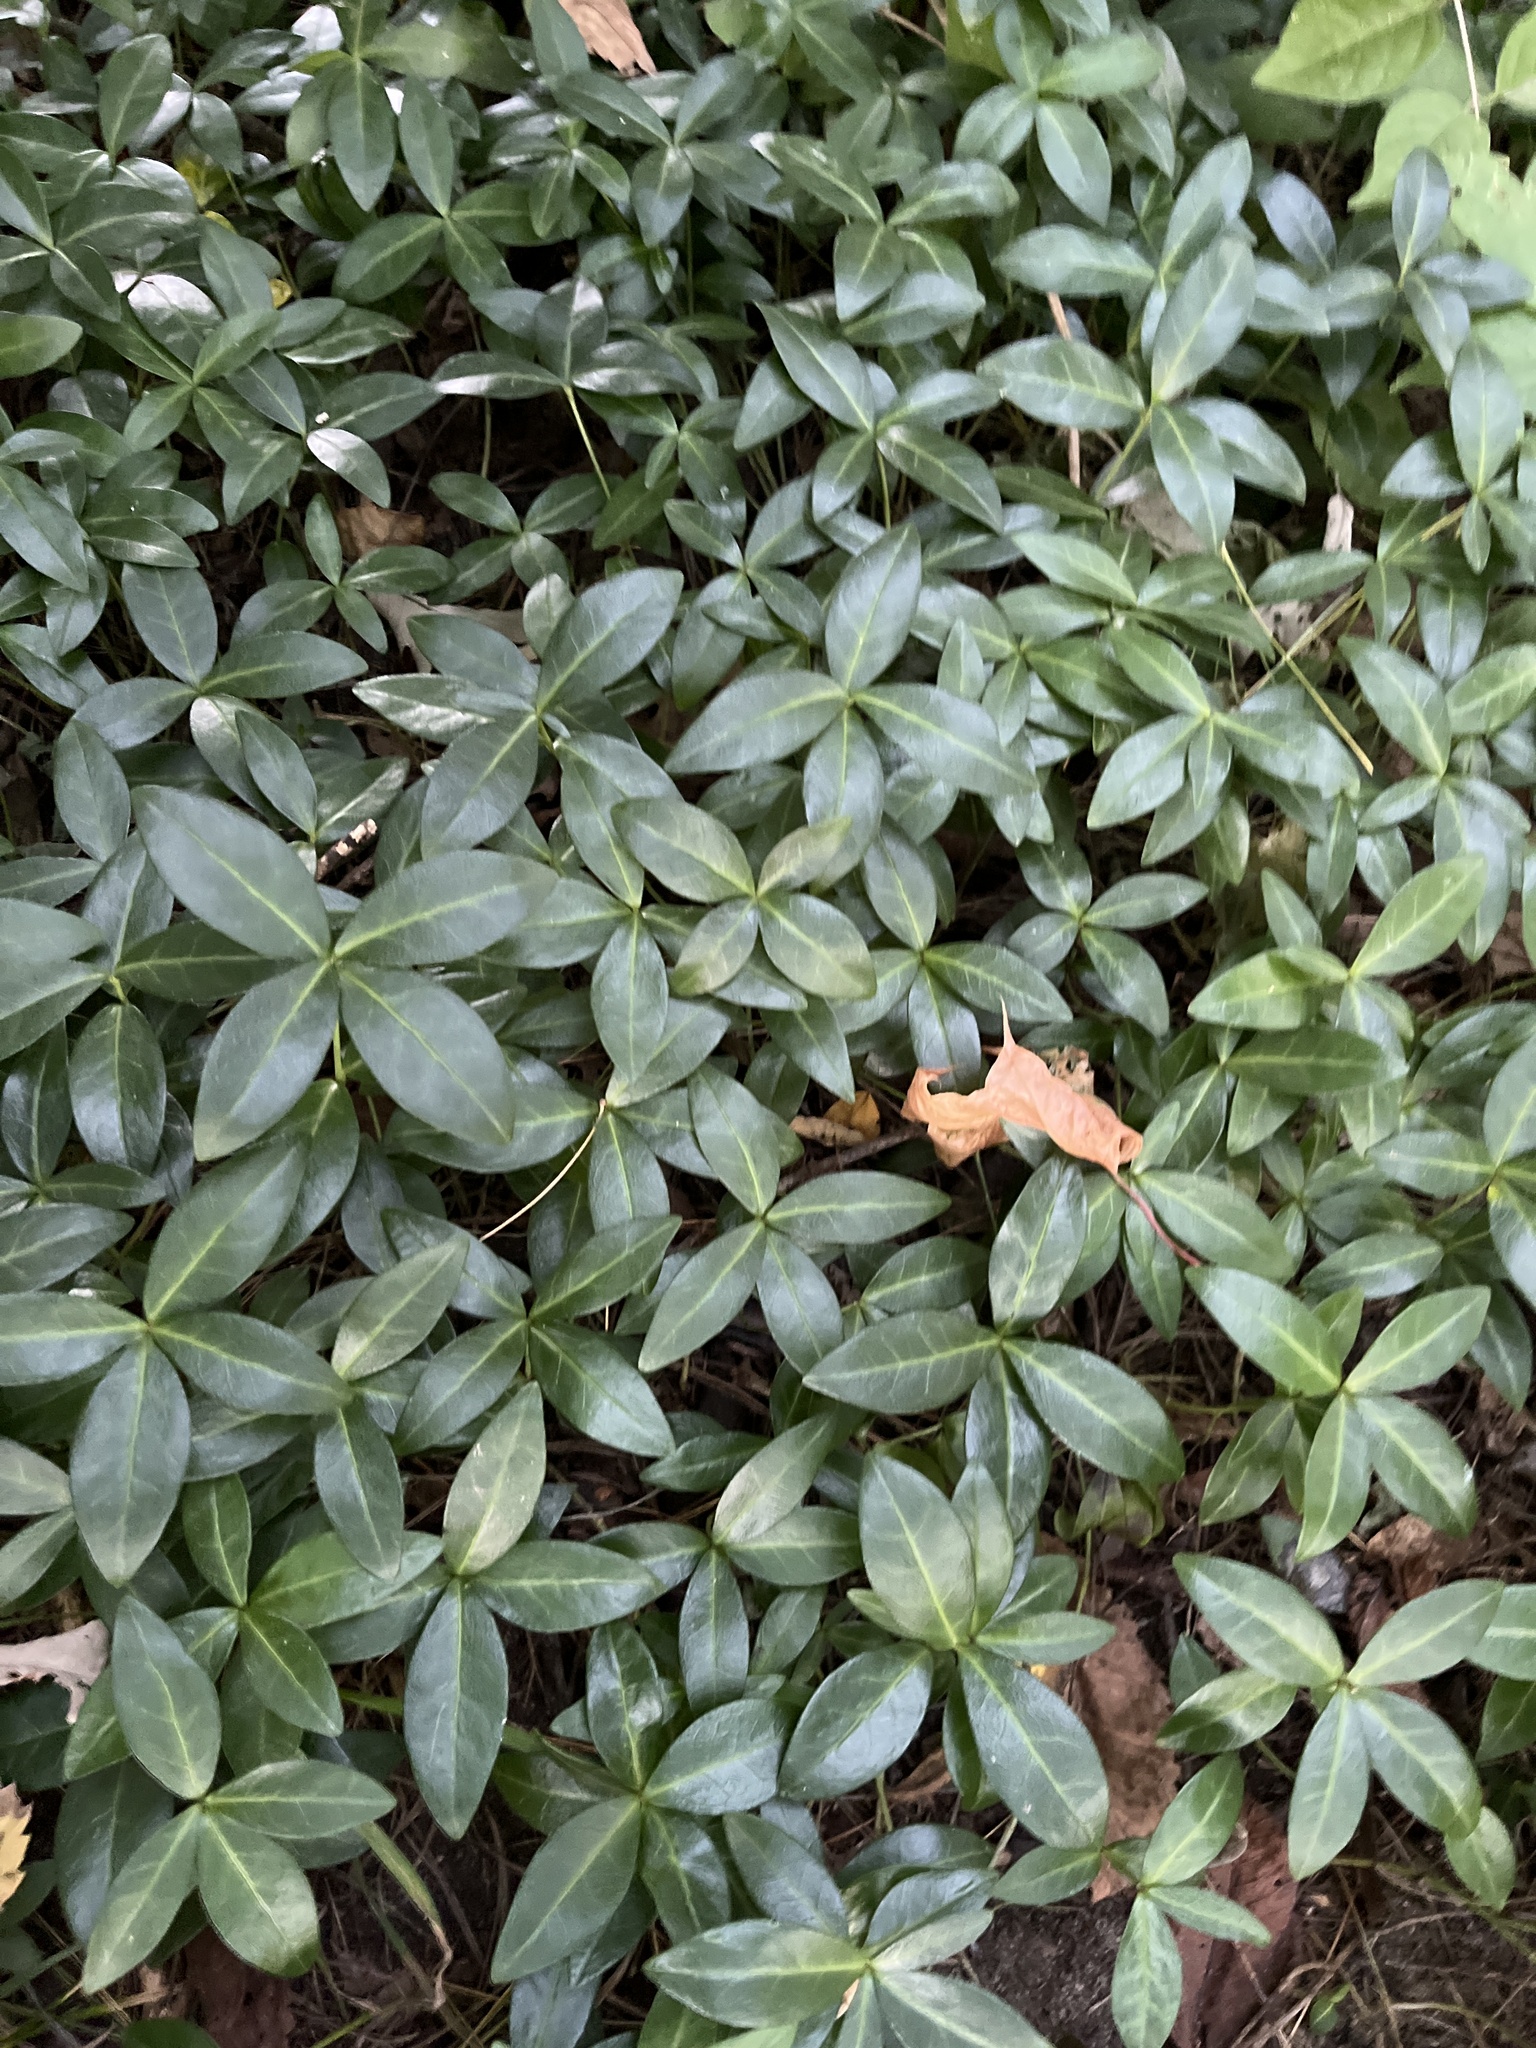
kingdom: Plantae
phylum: Tracheophyta
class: Magnoliopsida
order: Gentianales
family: Apocynaceae
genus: Vinca
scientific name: Vinca minor
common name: Lesser periwinkle
